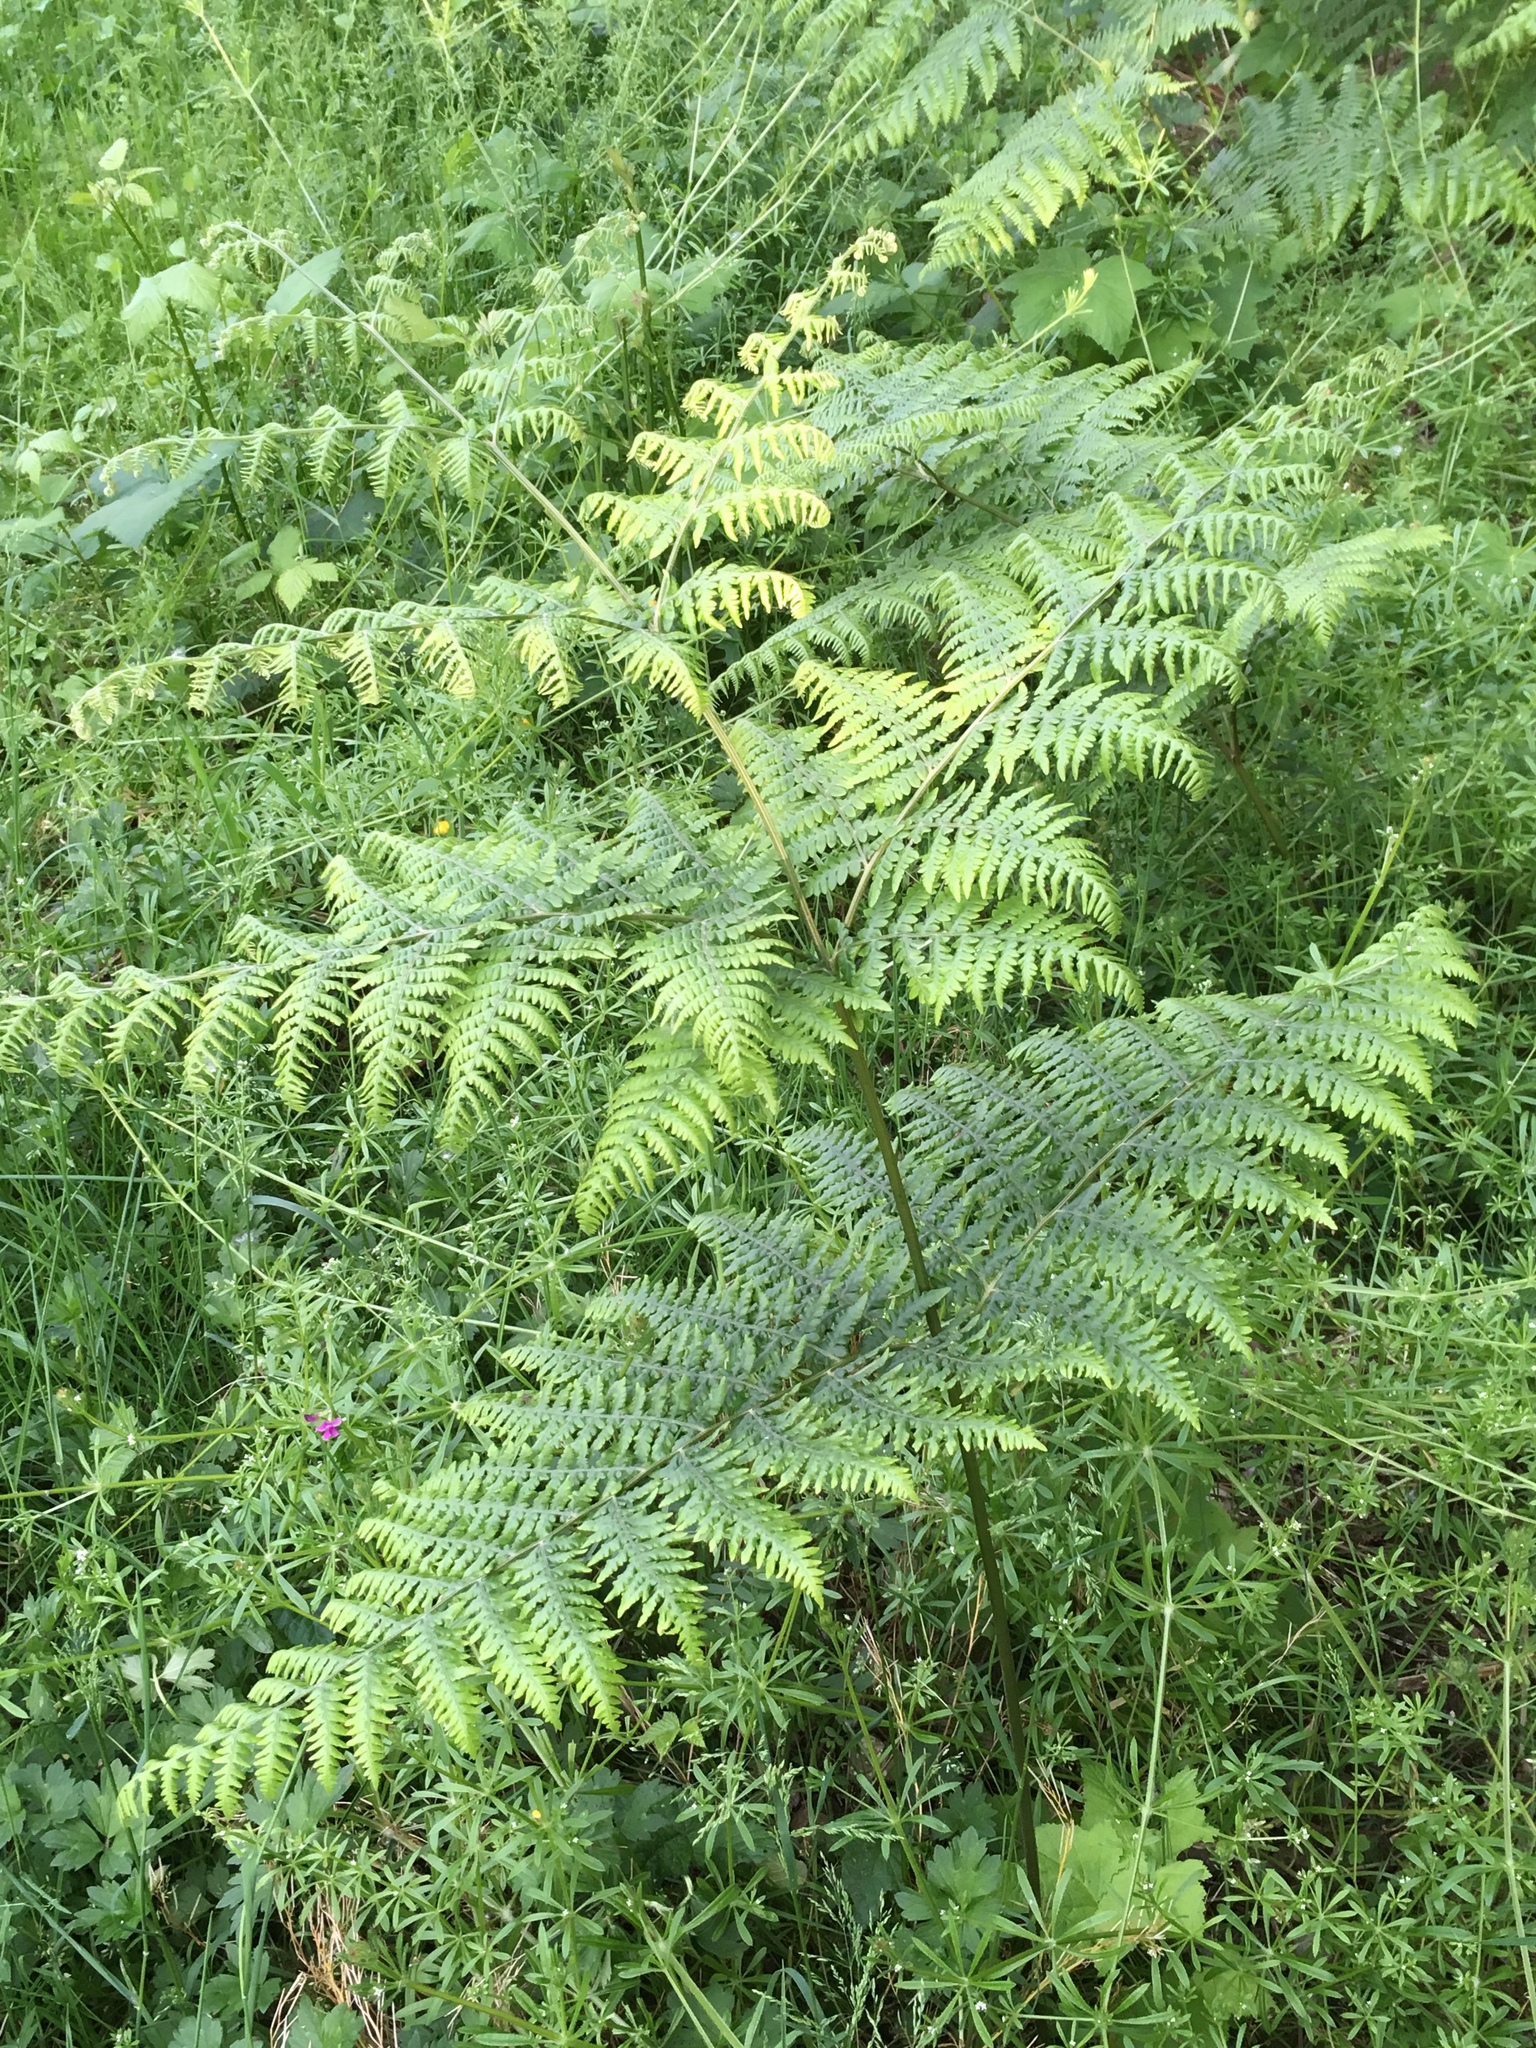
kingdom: Plantae
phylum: Tracheophyta
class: Polypodiopsida
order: Polypodiales
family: Dennstaedtiaceae
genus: Pteridium
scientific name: Pteridium aquilinum
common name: Bracken
